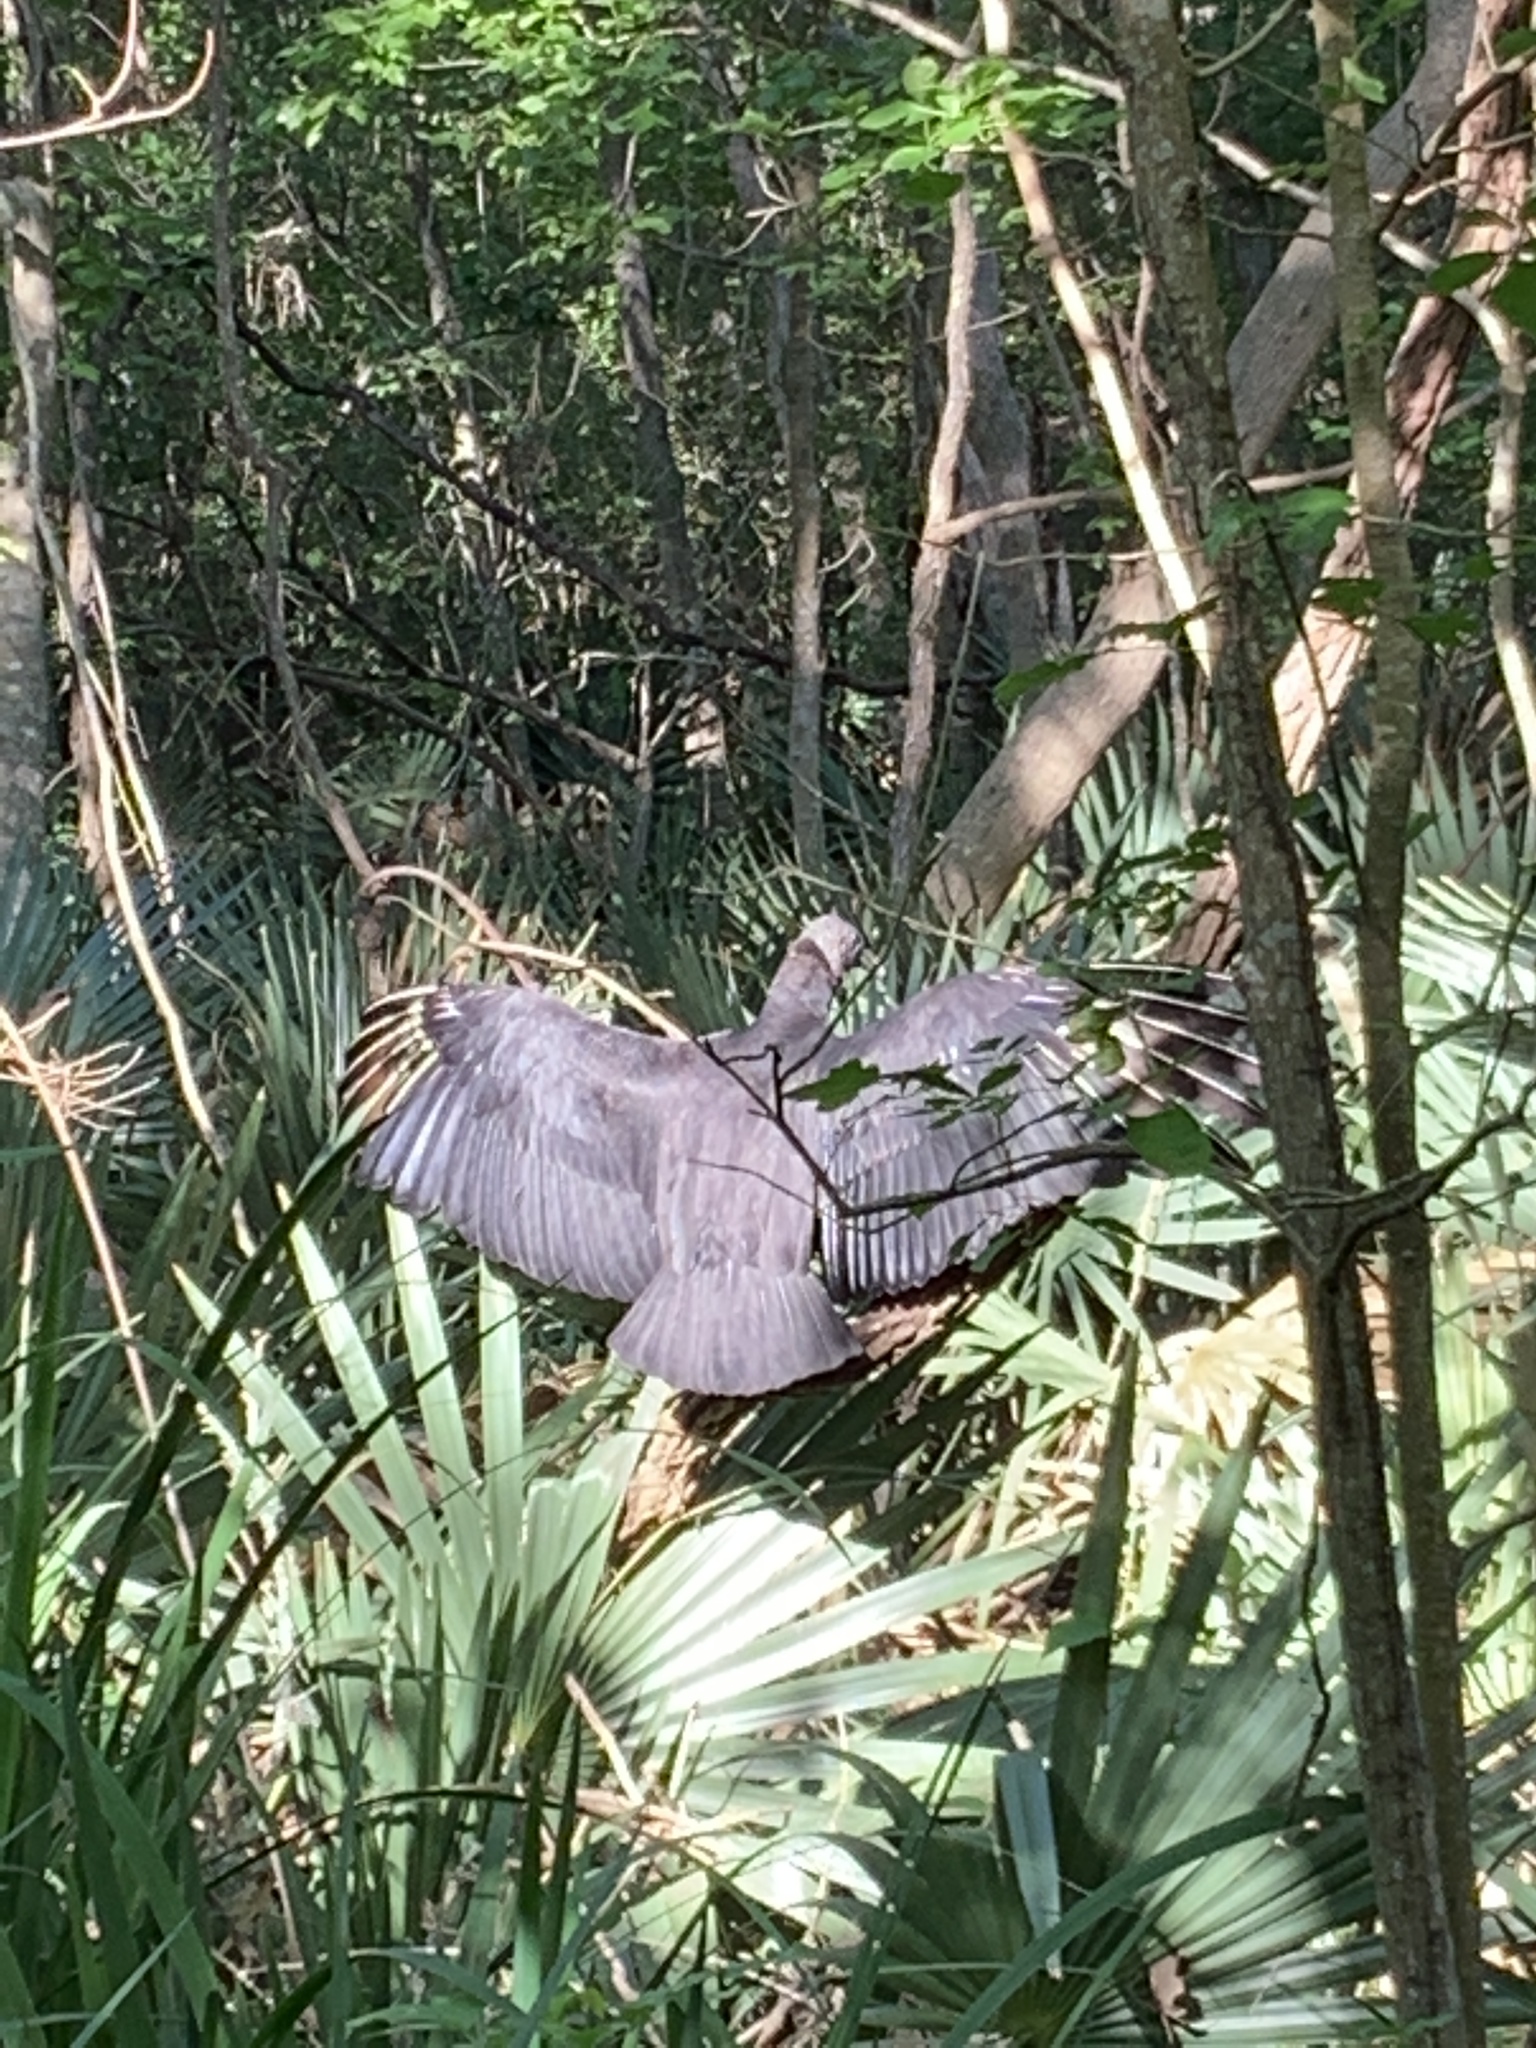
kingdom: Animalia
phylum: Chordata
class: Aves
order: Accipitriformes
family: Cathartidae
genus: Coragyps
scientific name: Coragyps atratus
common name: Black vulture
